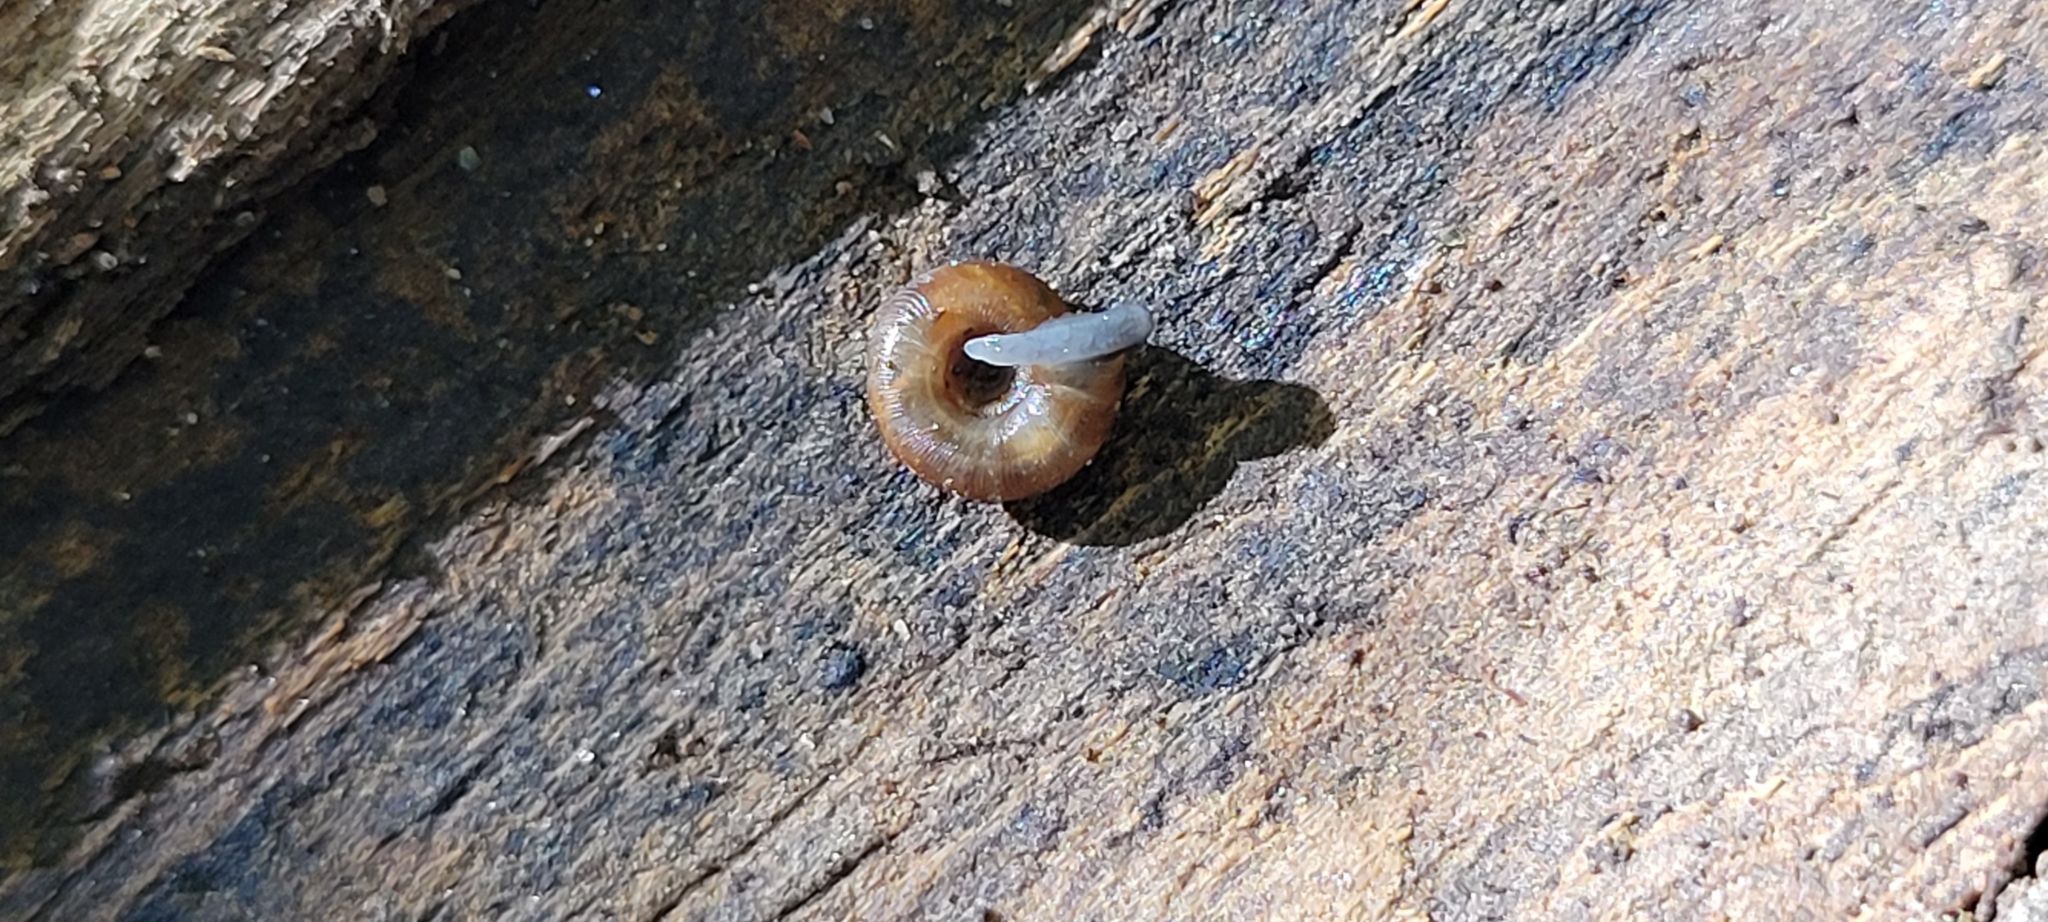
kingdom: Animalia
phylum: Mollusca
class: Gastropoda
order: Stylommatophora
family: Discidae
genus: Discus
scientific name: Discus rotundatus
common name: Rounded snail
